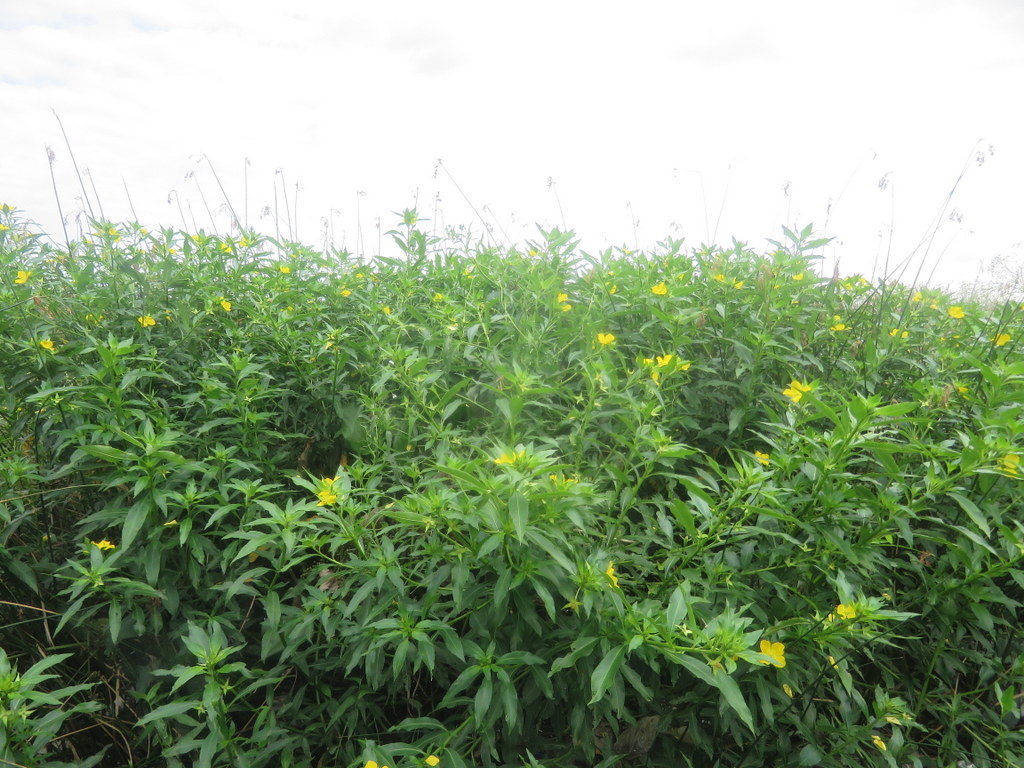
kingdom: Plantae
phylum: Tracheophyta
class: Magnoliopsida
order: Myrtales
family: Onagraceae
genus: Ludwigia
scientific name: Ludwigia elegans
